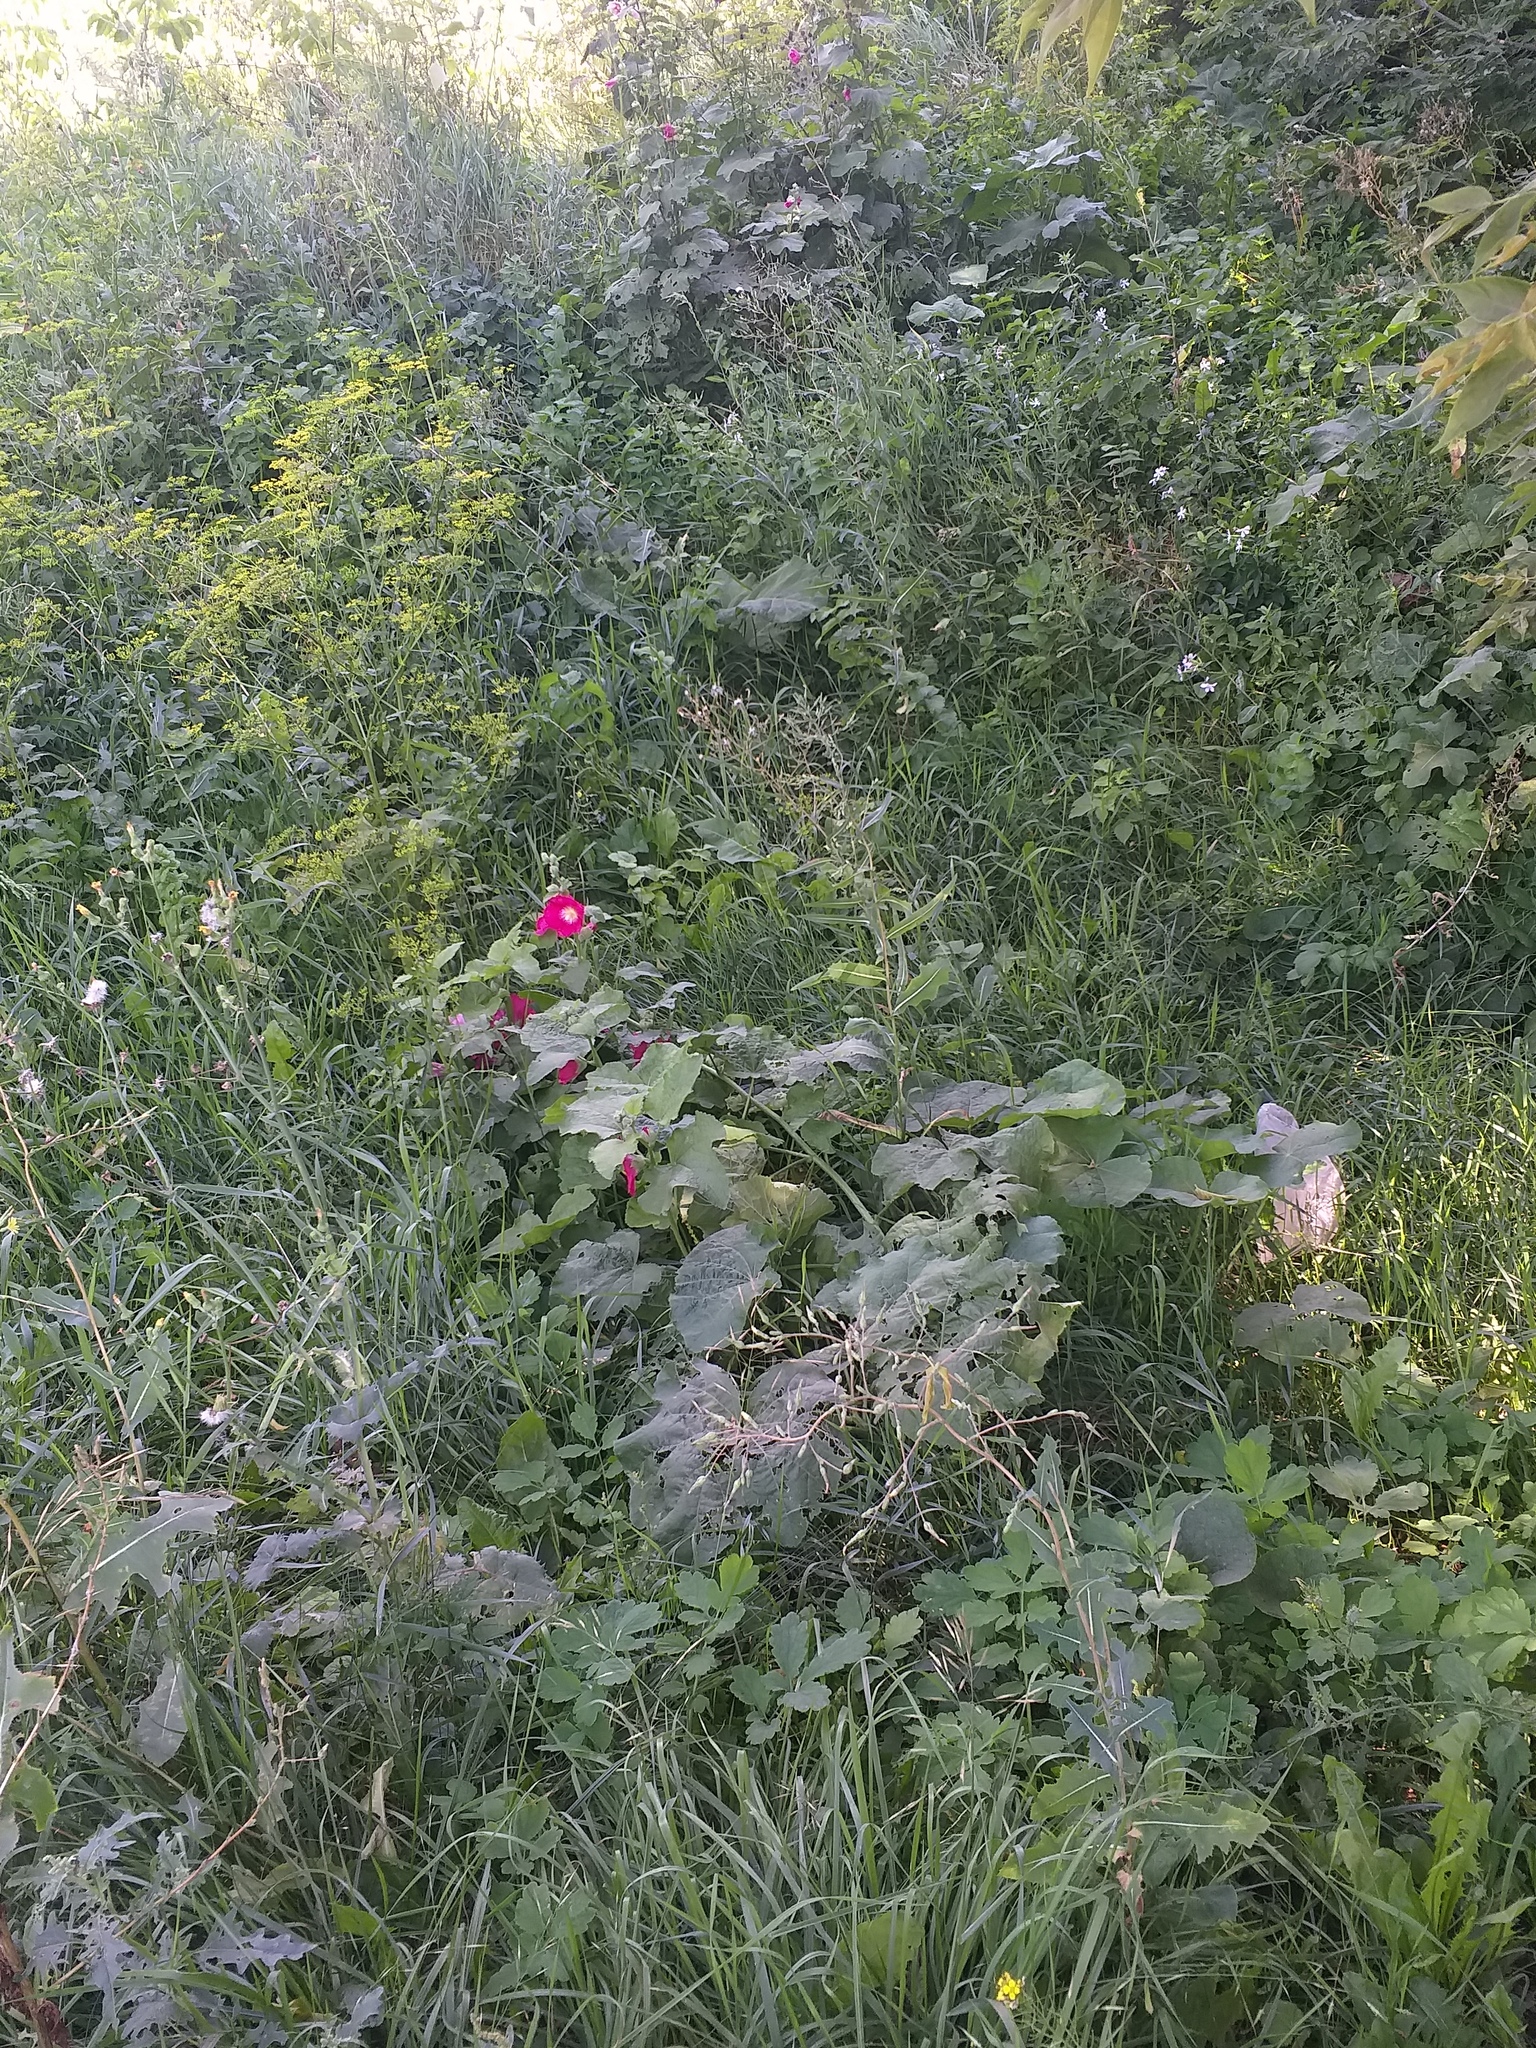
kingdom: Plantae
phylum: Tracheophyta
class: Magnoliopsida
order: Malvales
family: Malvaceae
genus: Alcea
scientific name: Alcea rosea
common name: Hollyhock
